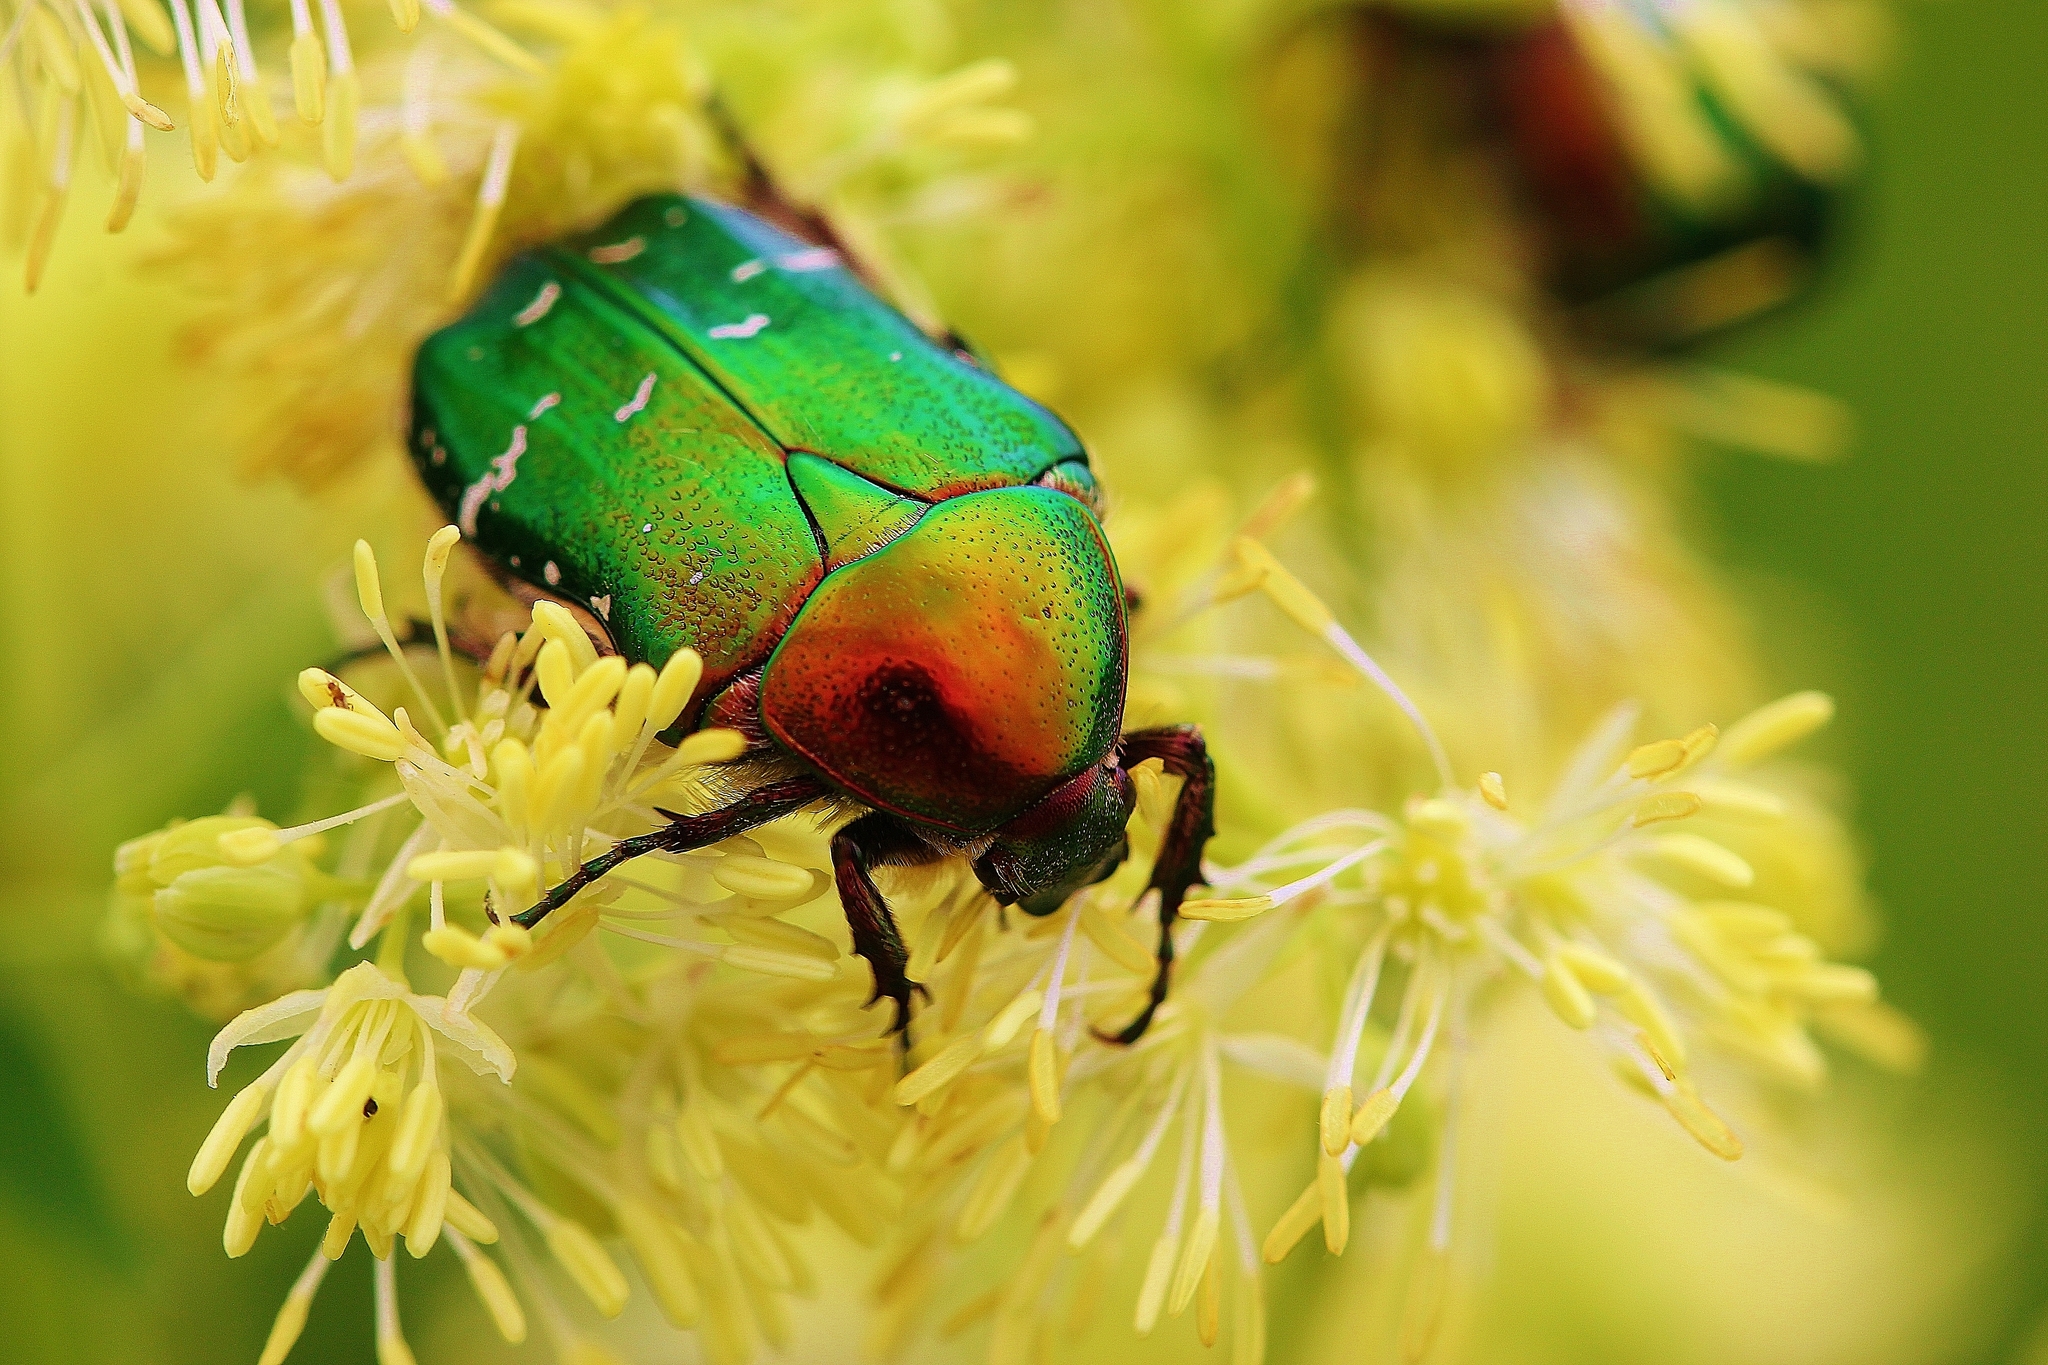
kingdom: Animalia
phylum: Arthropoda
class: Insecta
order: Coleoptera
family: Scarabaeidae
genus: Cetonia
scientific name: Cetonia aurata
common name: Rose chafer
